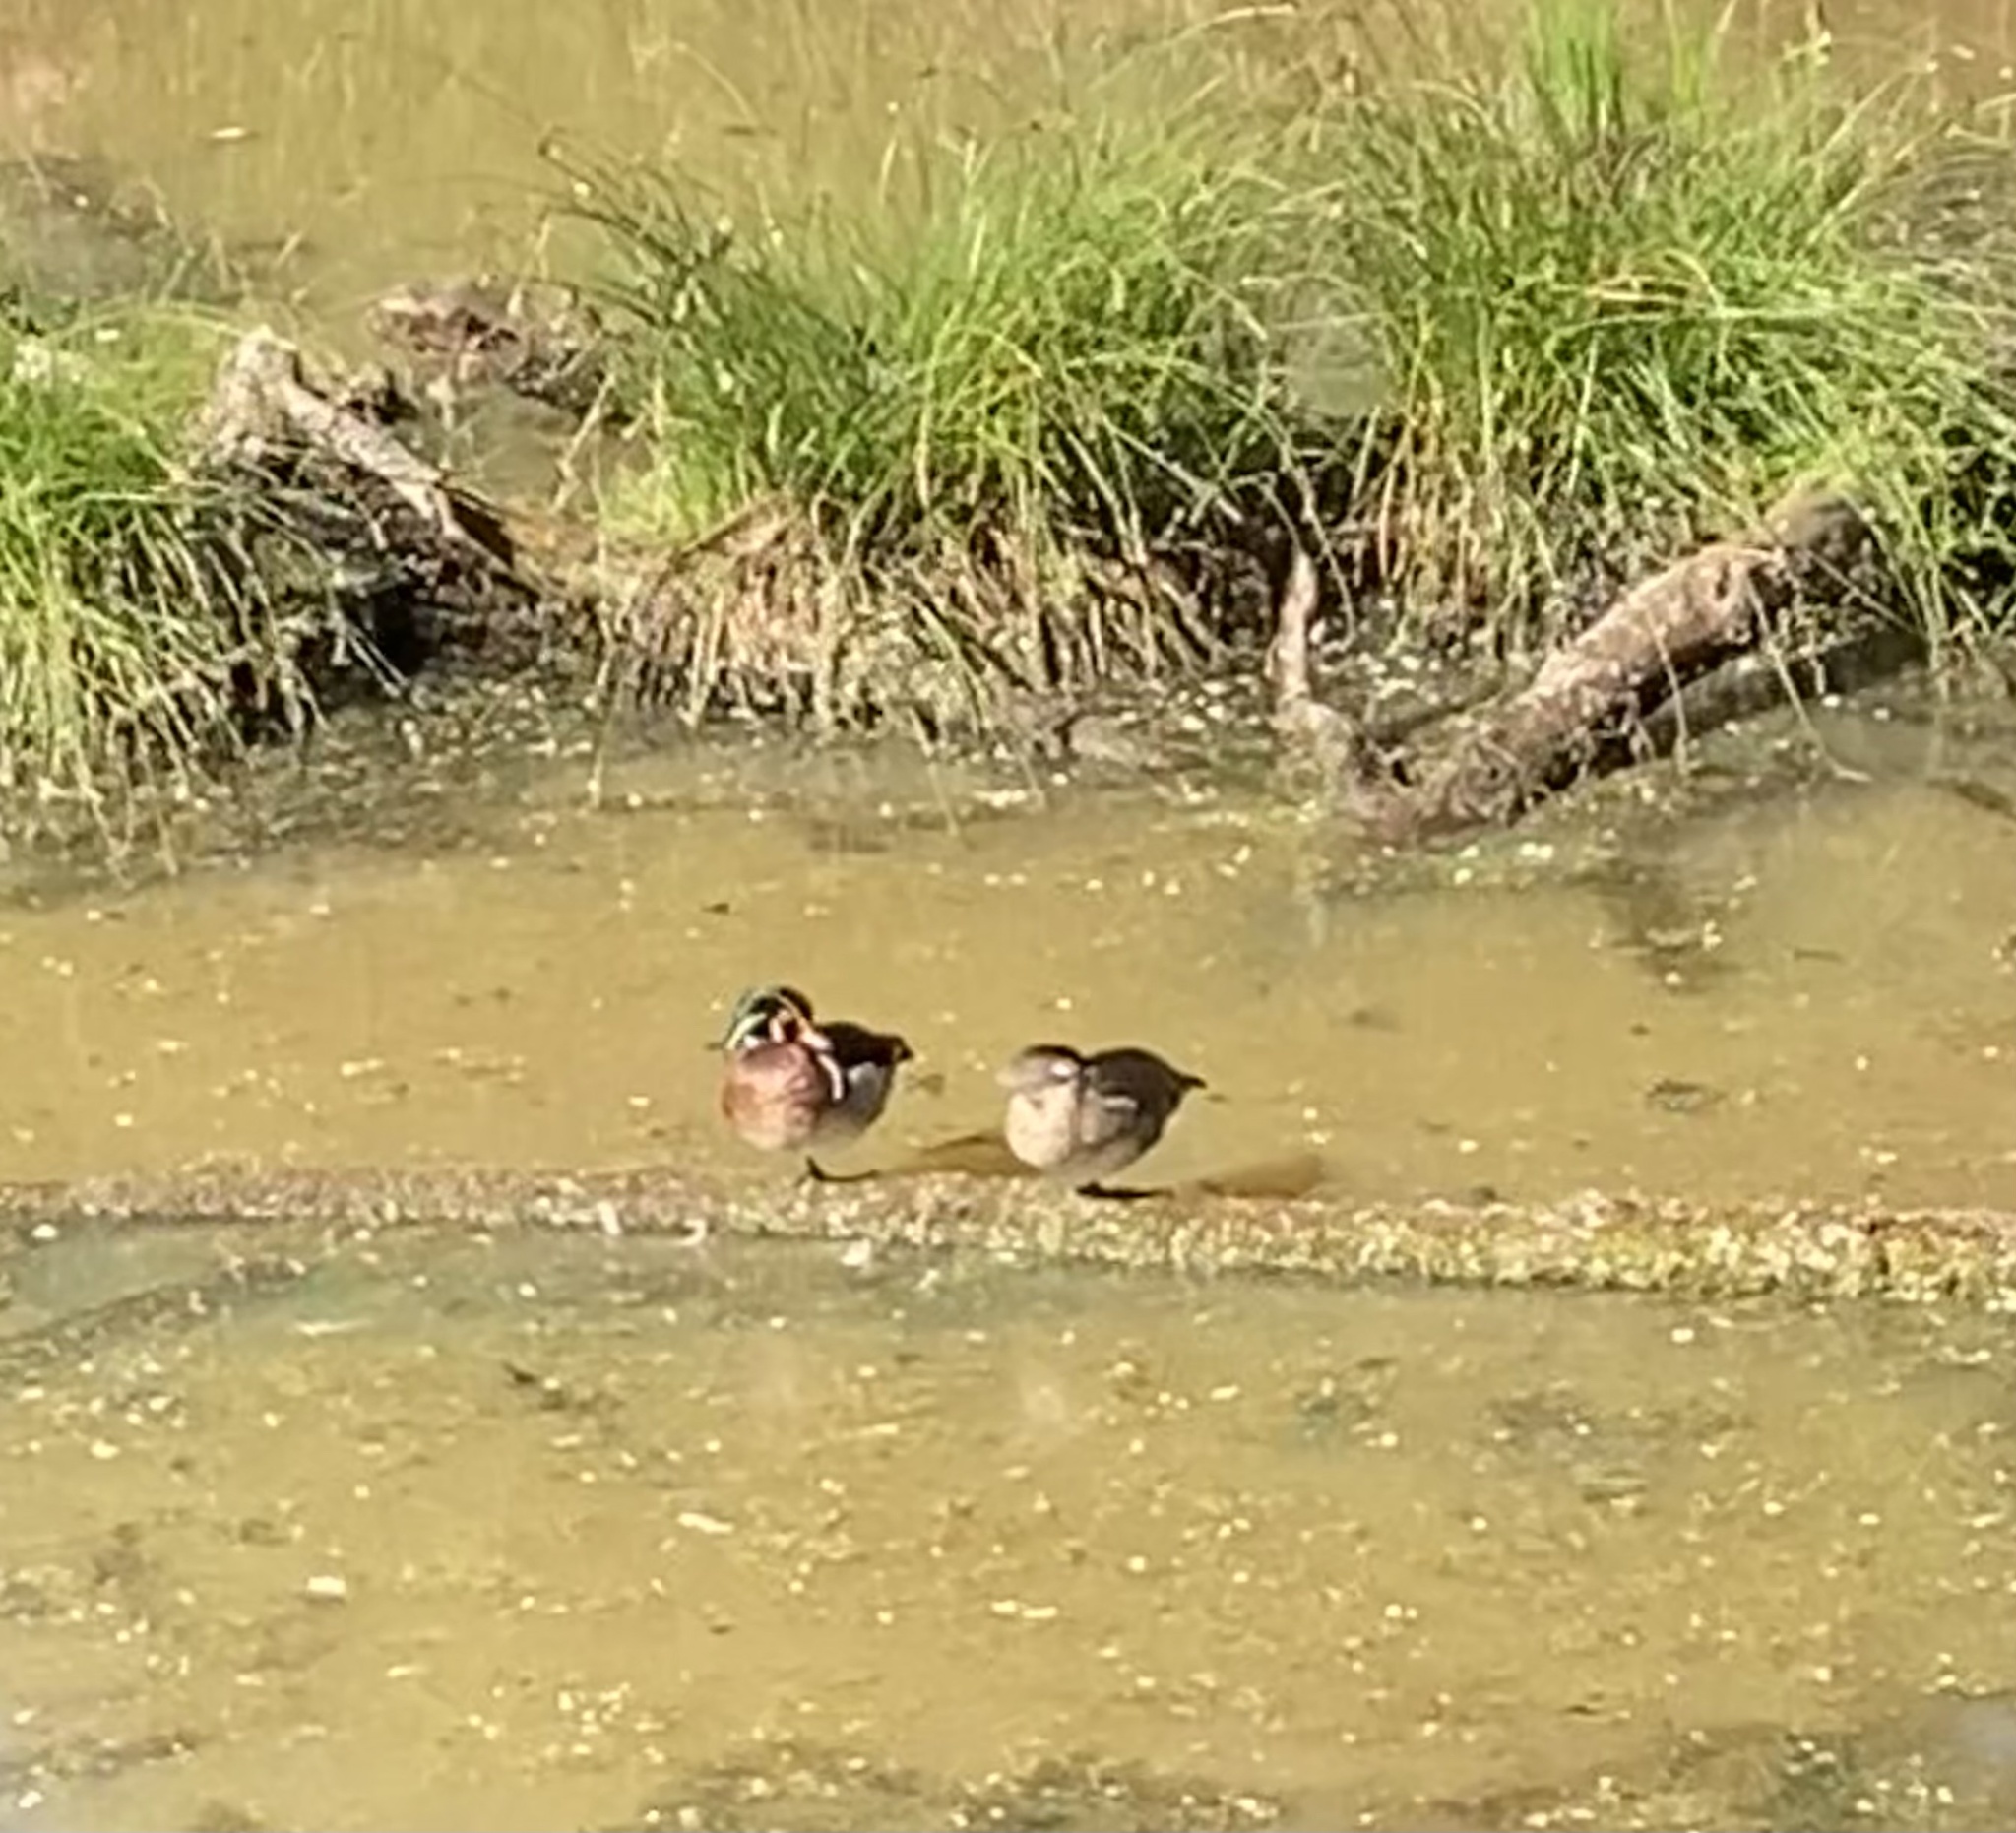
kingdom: Animalia
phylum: Chordata
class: Aves
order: Anseriformes
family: Anatidae
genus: Aix
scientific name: Aix sponsa
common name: Wood duck
